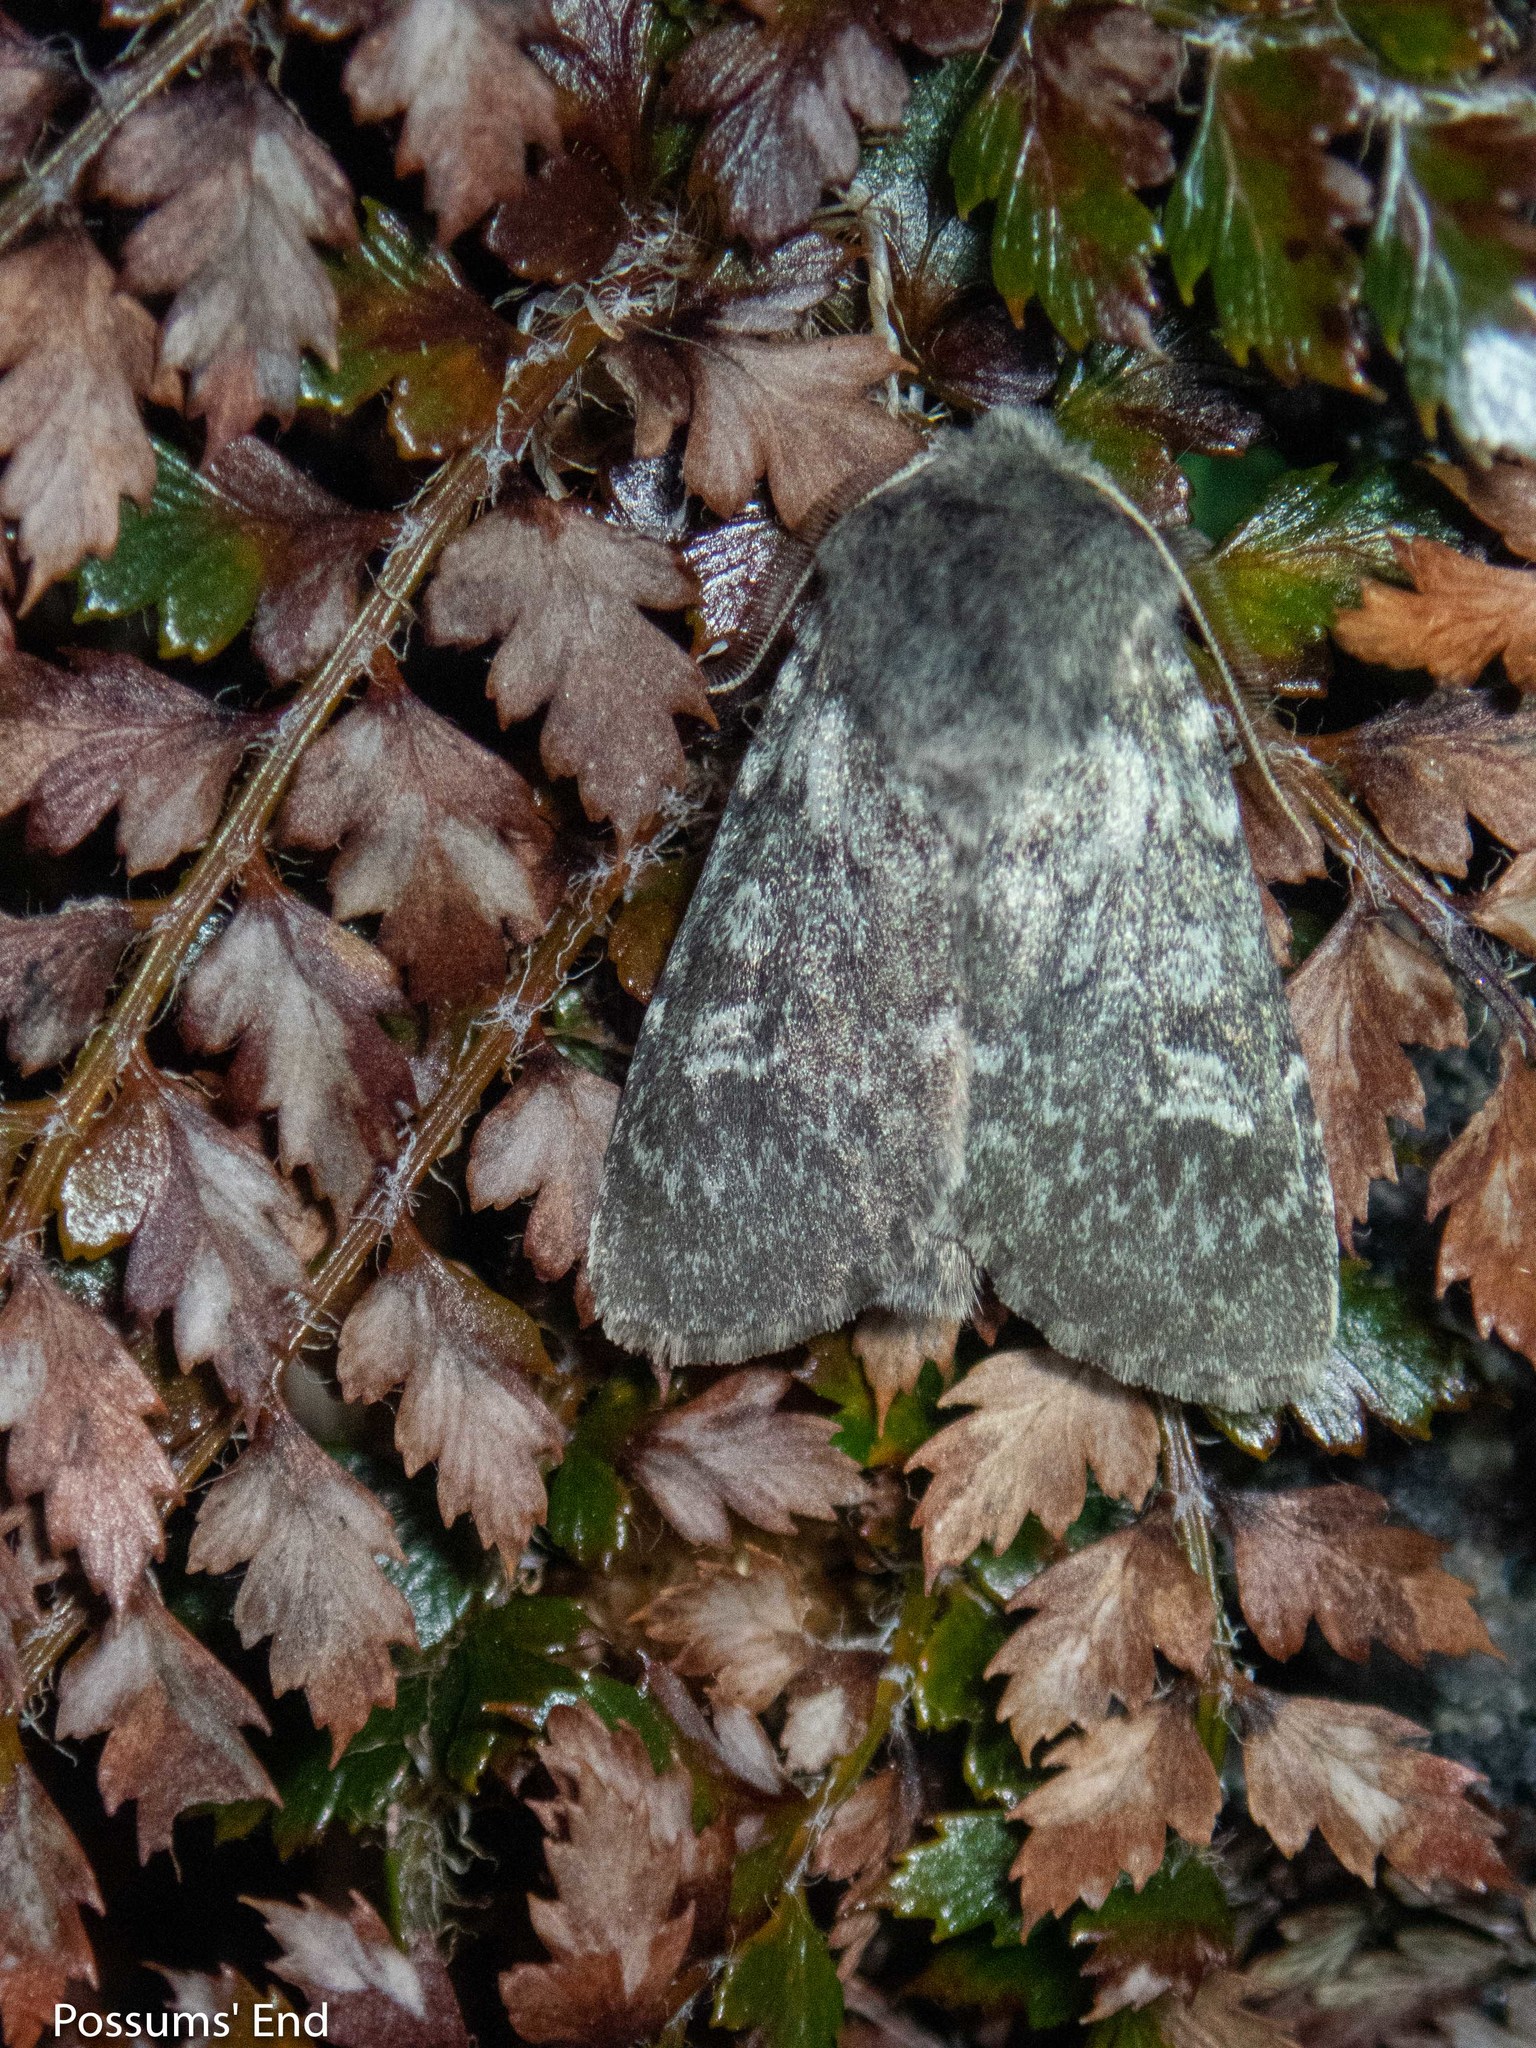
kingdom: Animalia
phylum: Arthropoda
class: Insecta
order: Lepidoptera
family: Noctuidae
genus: Ichneutica
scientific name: Ichneutica eris
